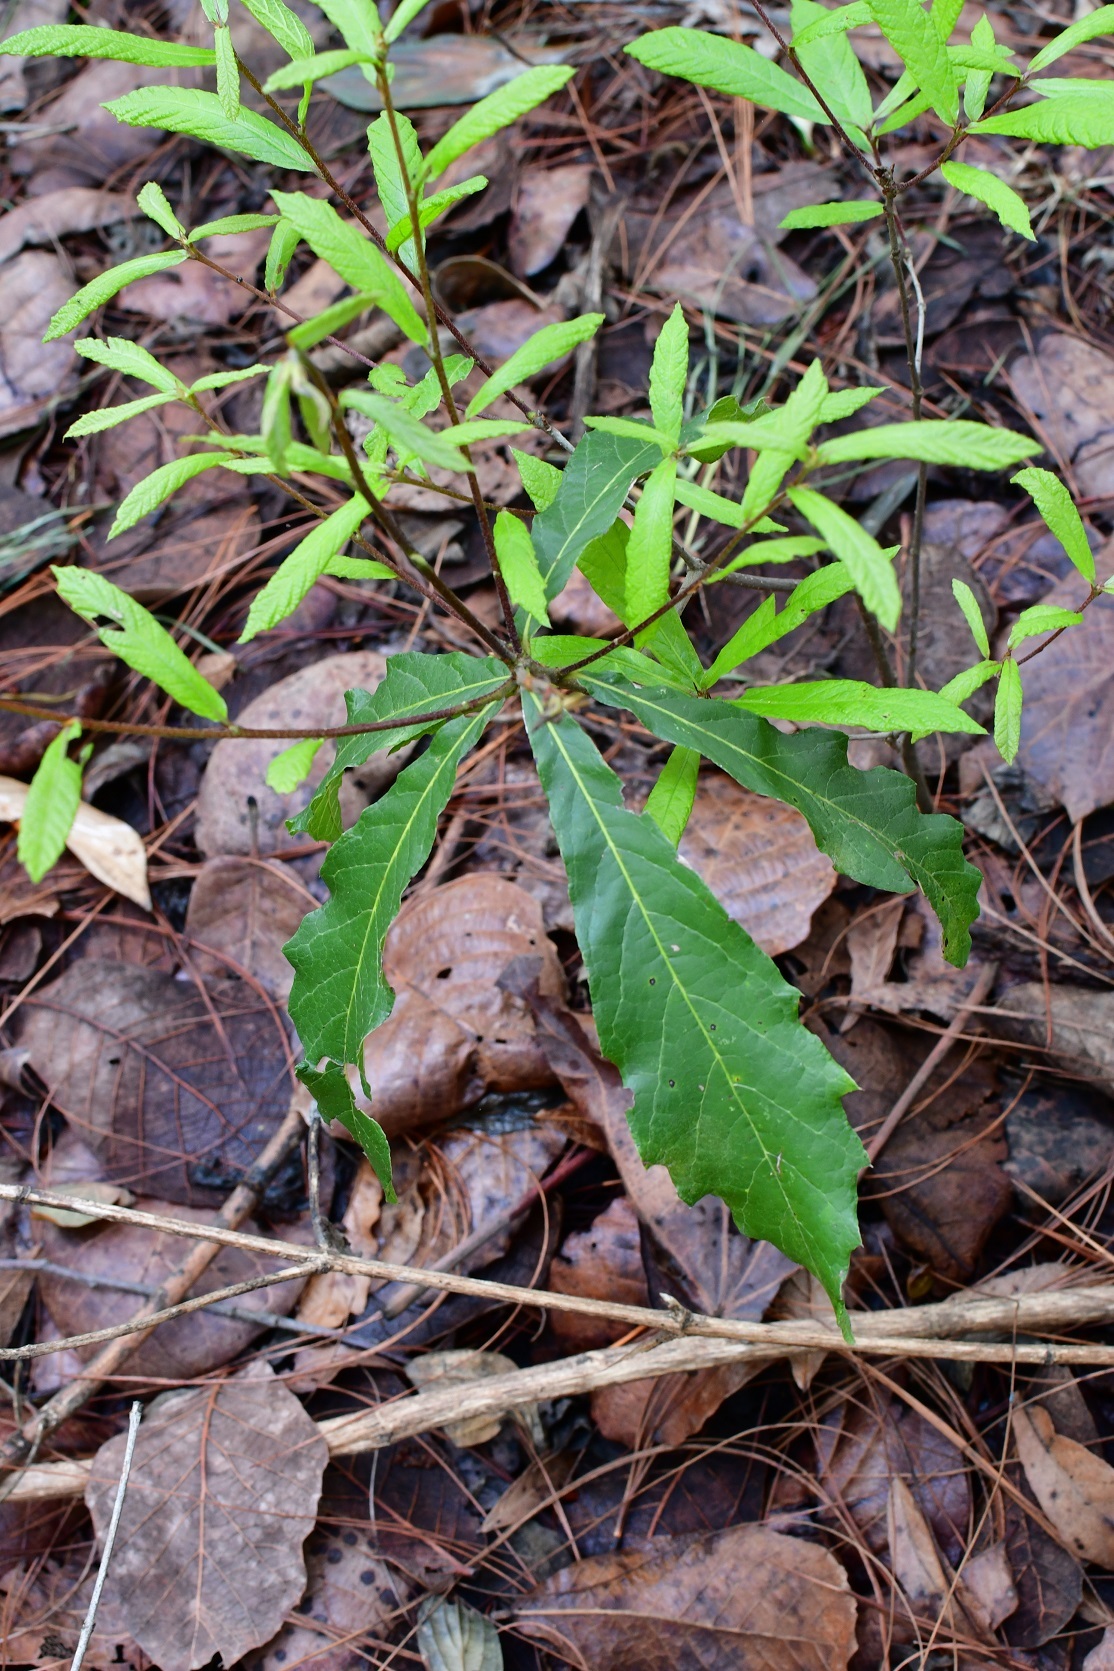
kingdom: Plantae
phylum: Tracheophyta
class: Magnoliopsida
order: Fagales
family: Fagaceae
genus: Quercus
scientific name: Quercus castanea
